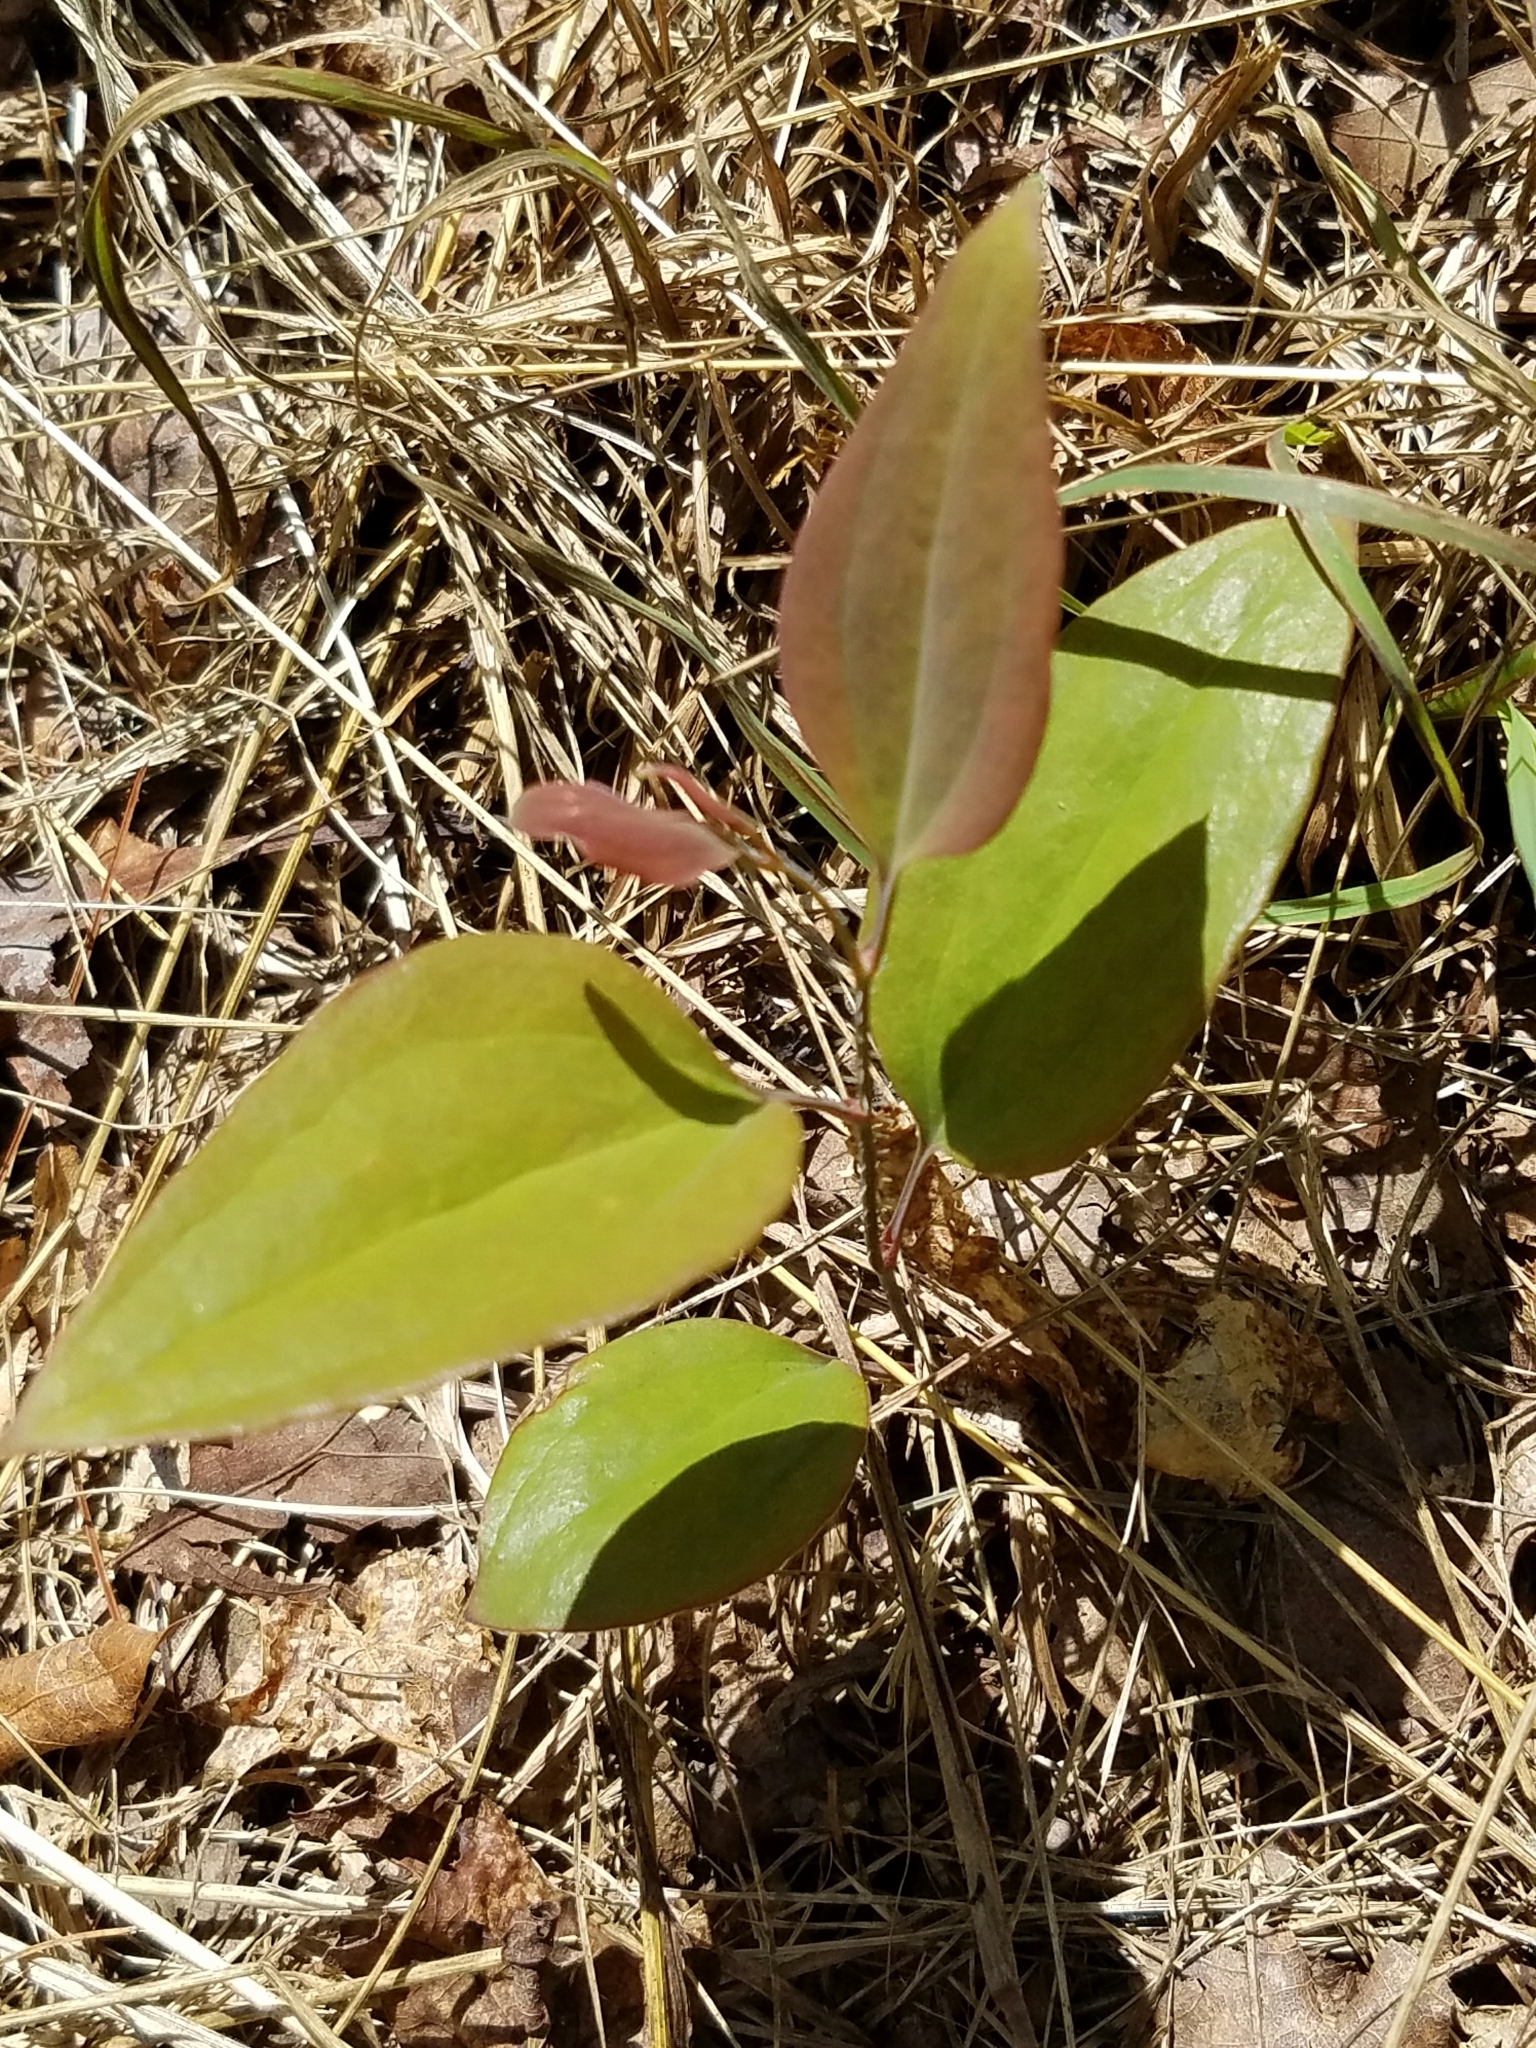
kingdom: Plantae
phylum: Tracheophyta
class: Liliopsida
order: Liliales
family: Smilacaceae
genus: Smilax
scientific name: Smilax glauca
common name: Cat greenbrier
